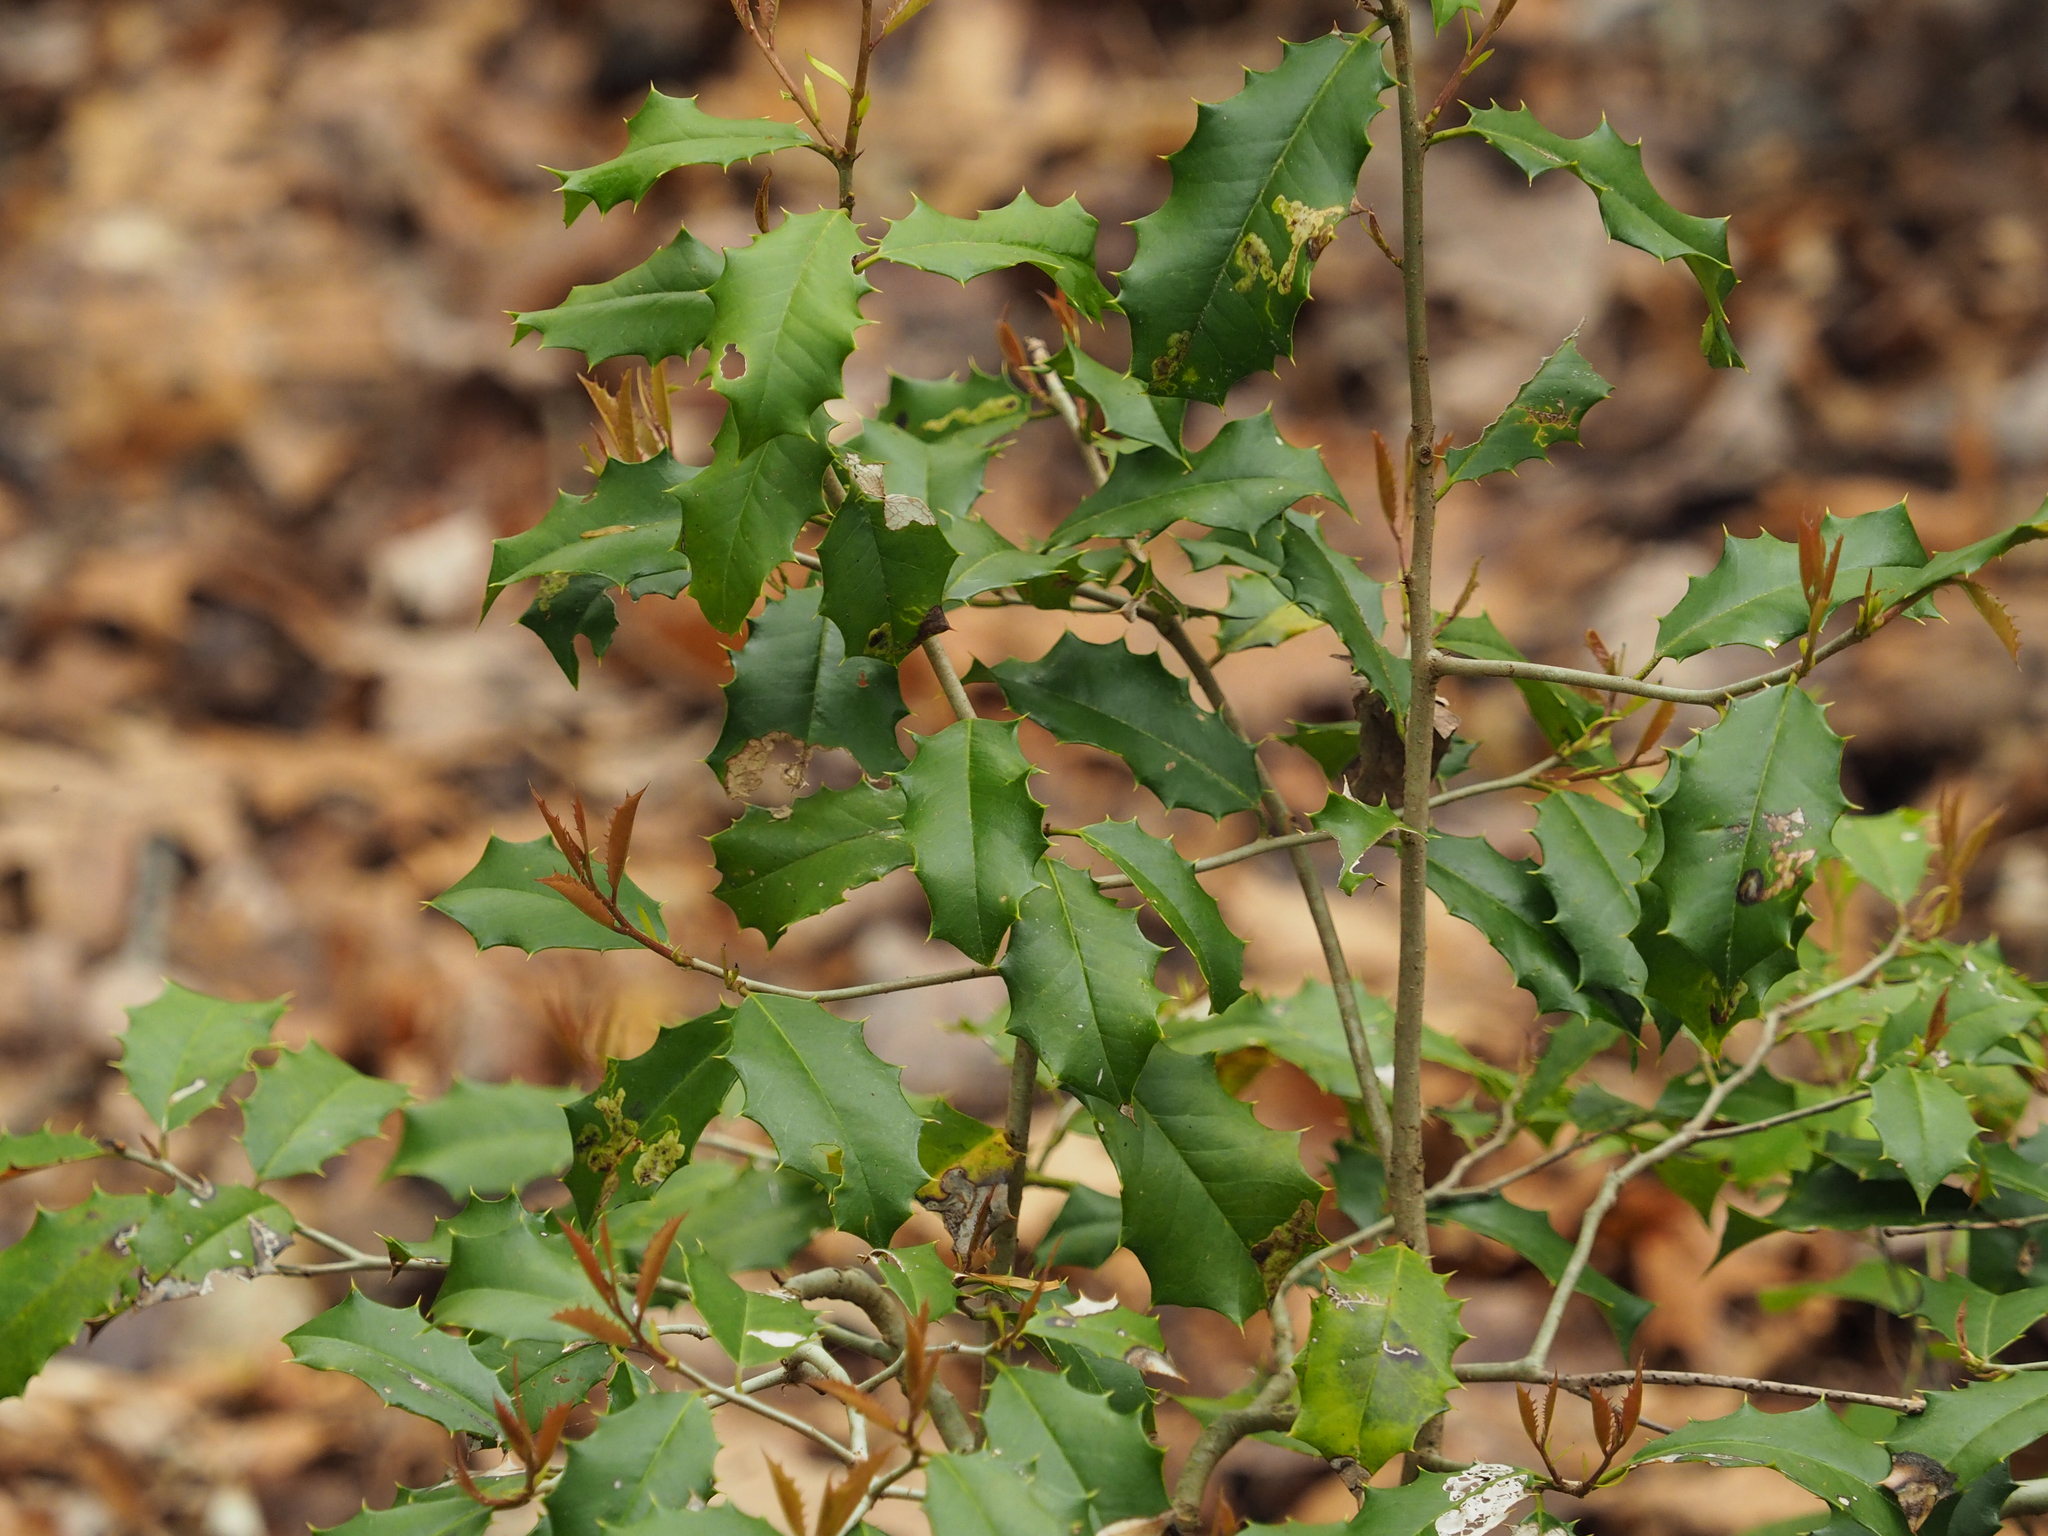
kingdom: Plantae
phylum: Tracheophyta
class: Magnoliopsida
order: Aquifoliales
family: Aquifoliaceae
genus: Ilex
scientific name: Ilex opaca
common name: American holly
